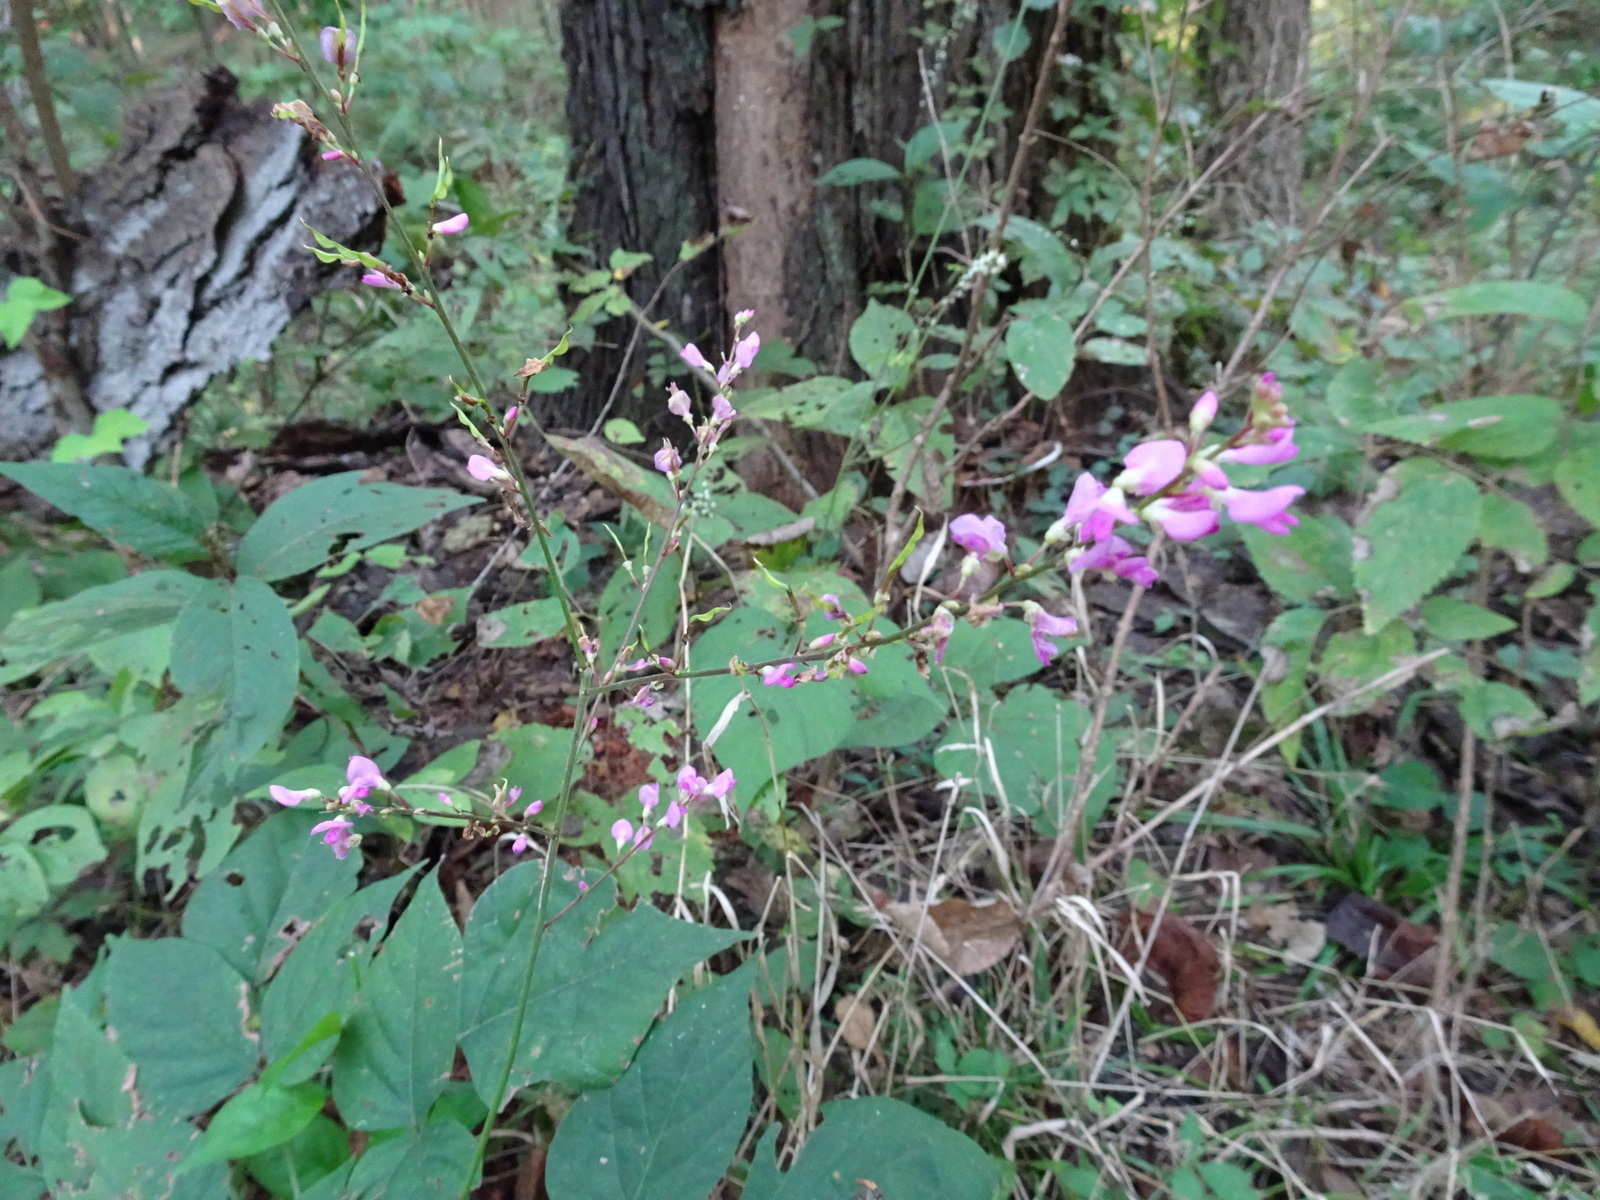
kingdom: Plantae
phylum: Tracheophyta
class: Magnoliopsida
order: Fabales
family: Fabaceae
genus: Hylodesmum
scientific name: Hylodesmum glutinosum
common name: Clustered-leaved tick-trefoil
